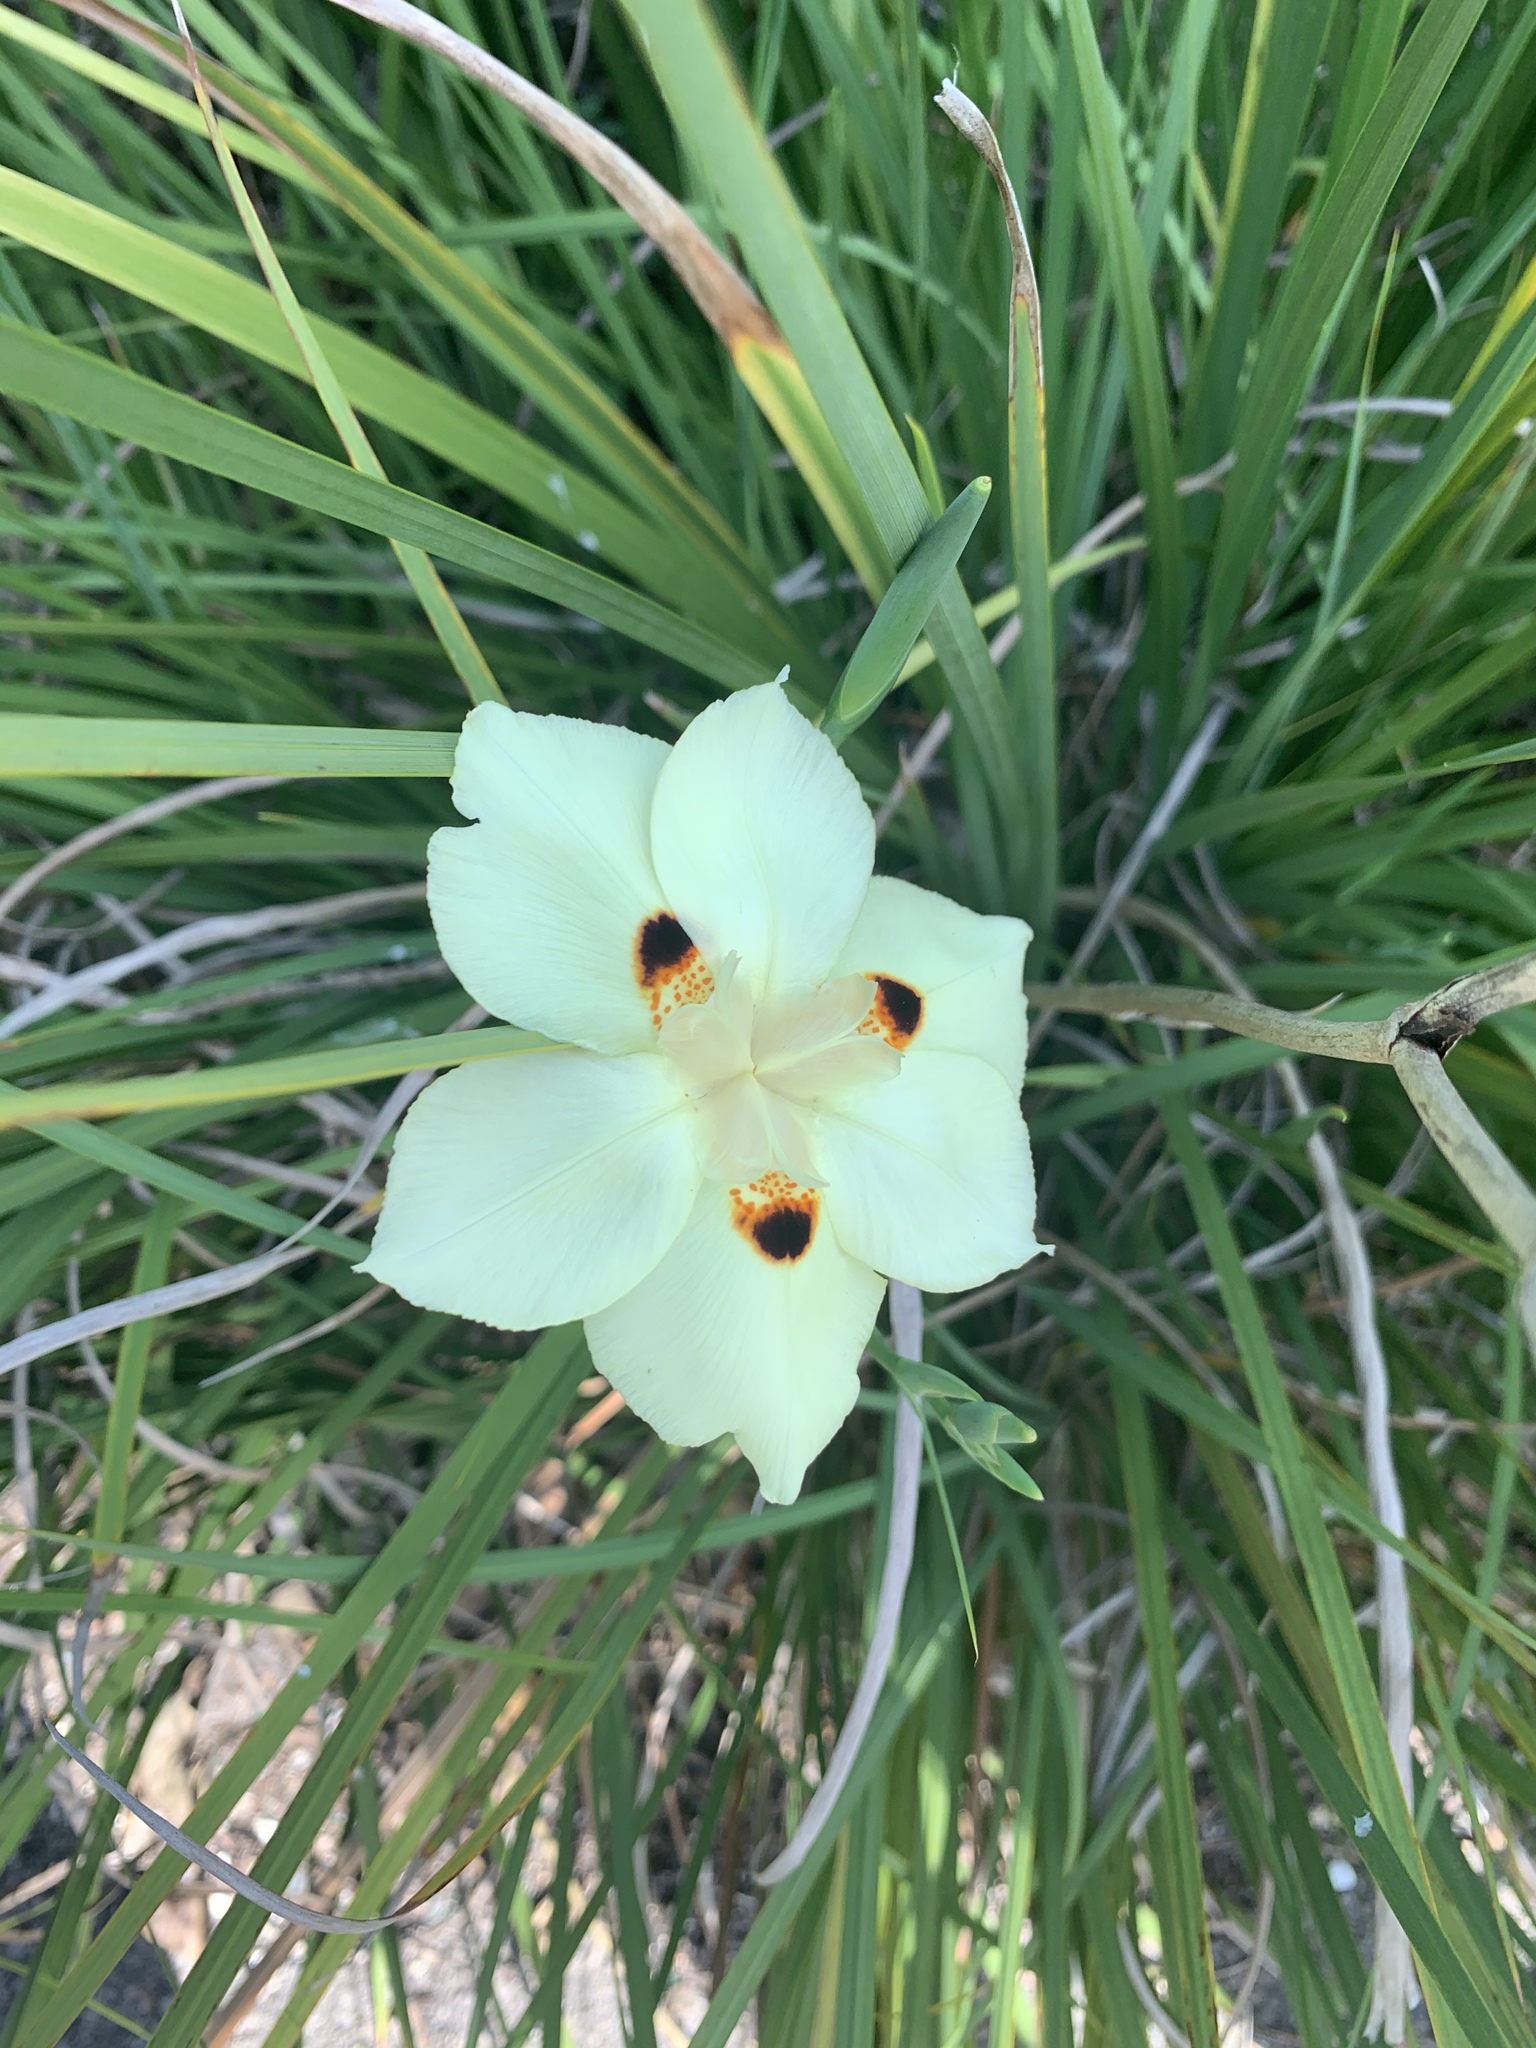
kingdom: Plantae
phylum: Tracheophyta
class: Liliopsida
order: Asparagales
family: Iridaceae
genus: Dietes
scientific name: Dietes bicolor
